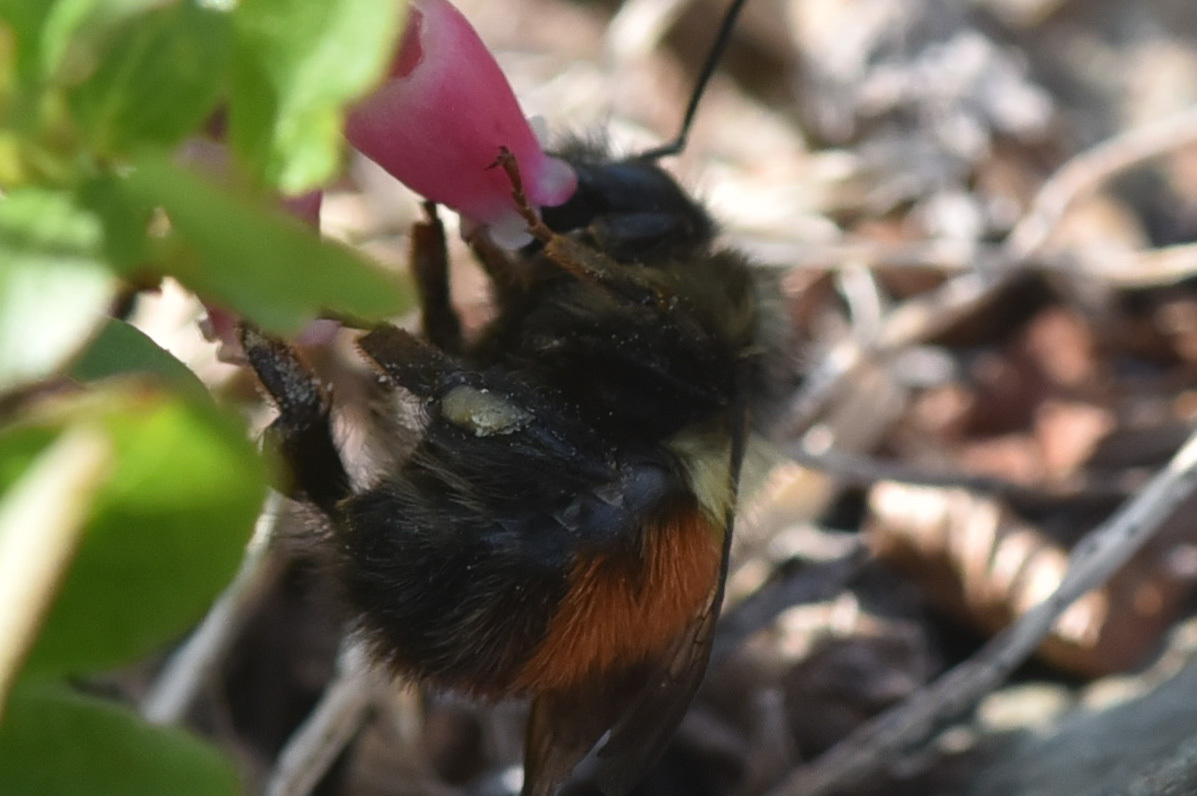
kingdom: Animalia
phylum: Arthropoda
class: Insecta
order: Hymenoptera
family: Apidae
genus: Bombus
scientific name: Bombus melanopygus
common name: Black tail bumble bee
